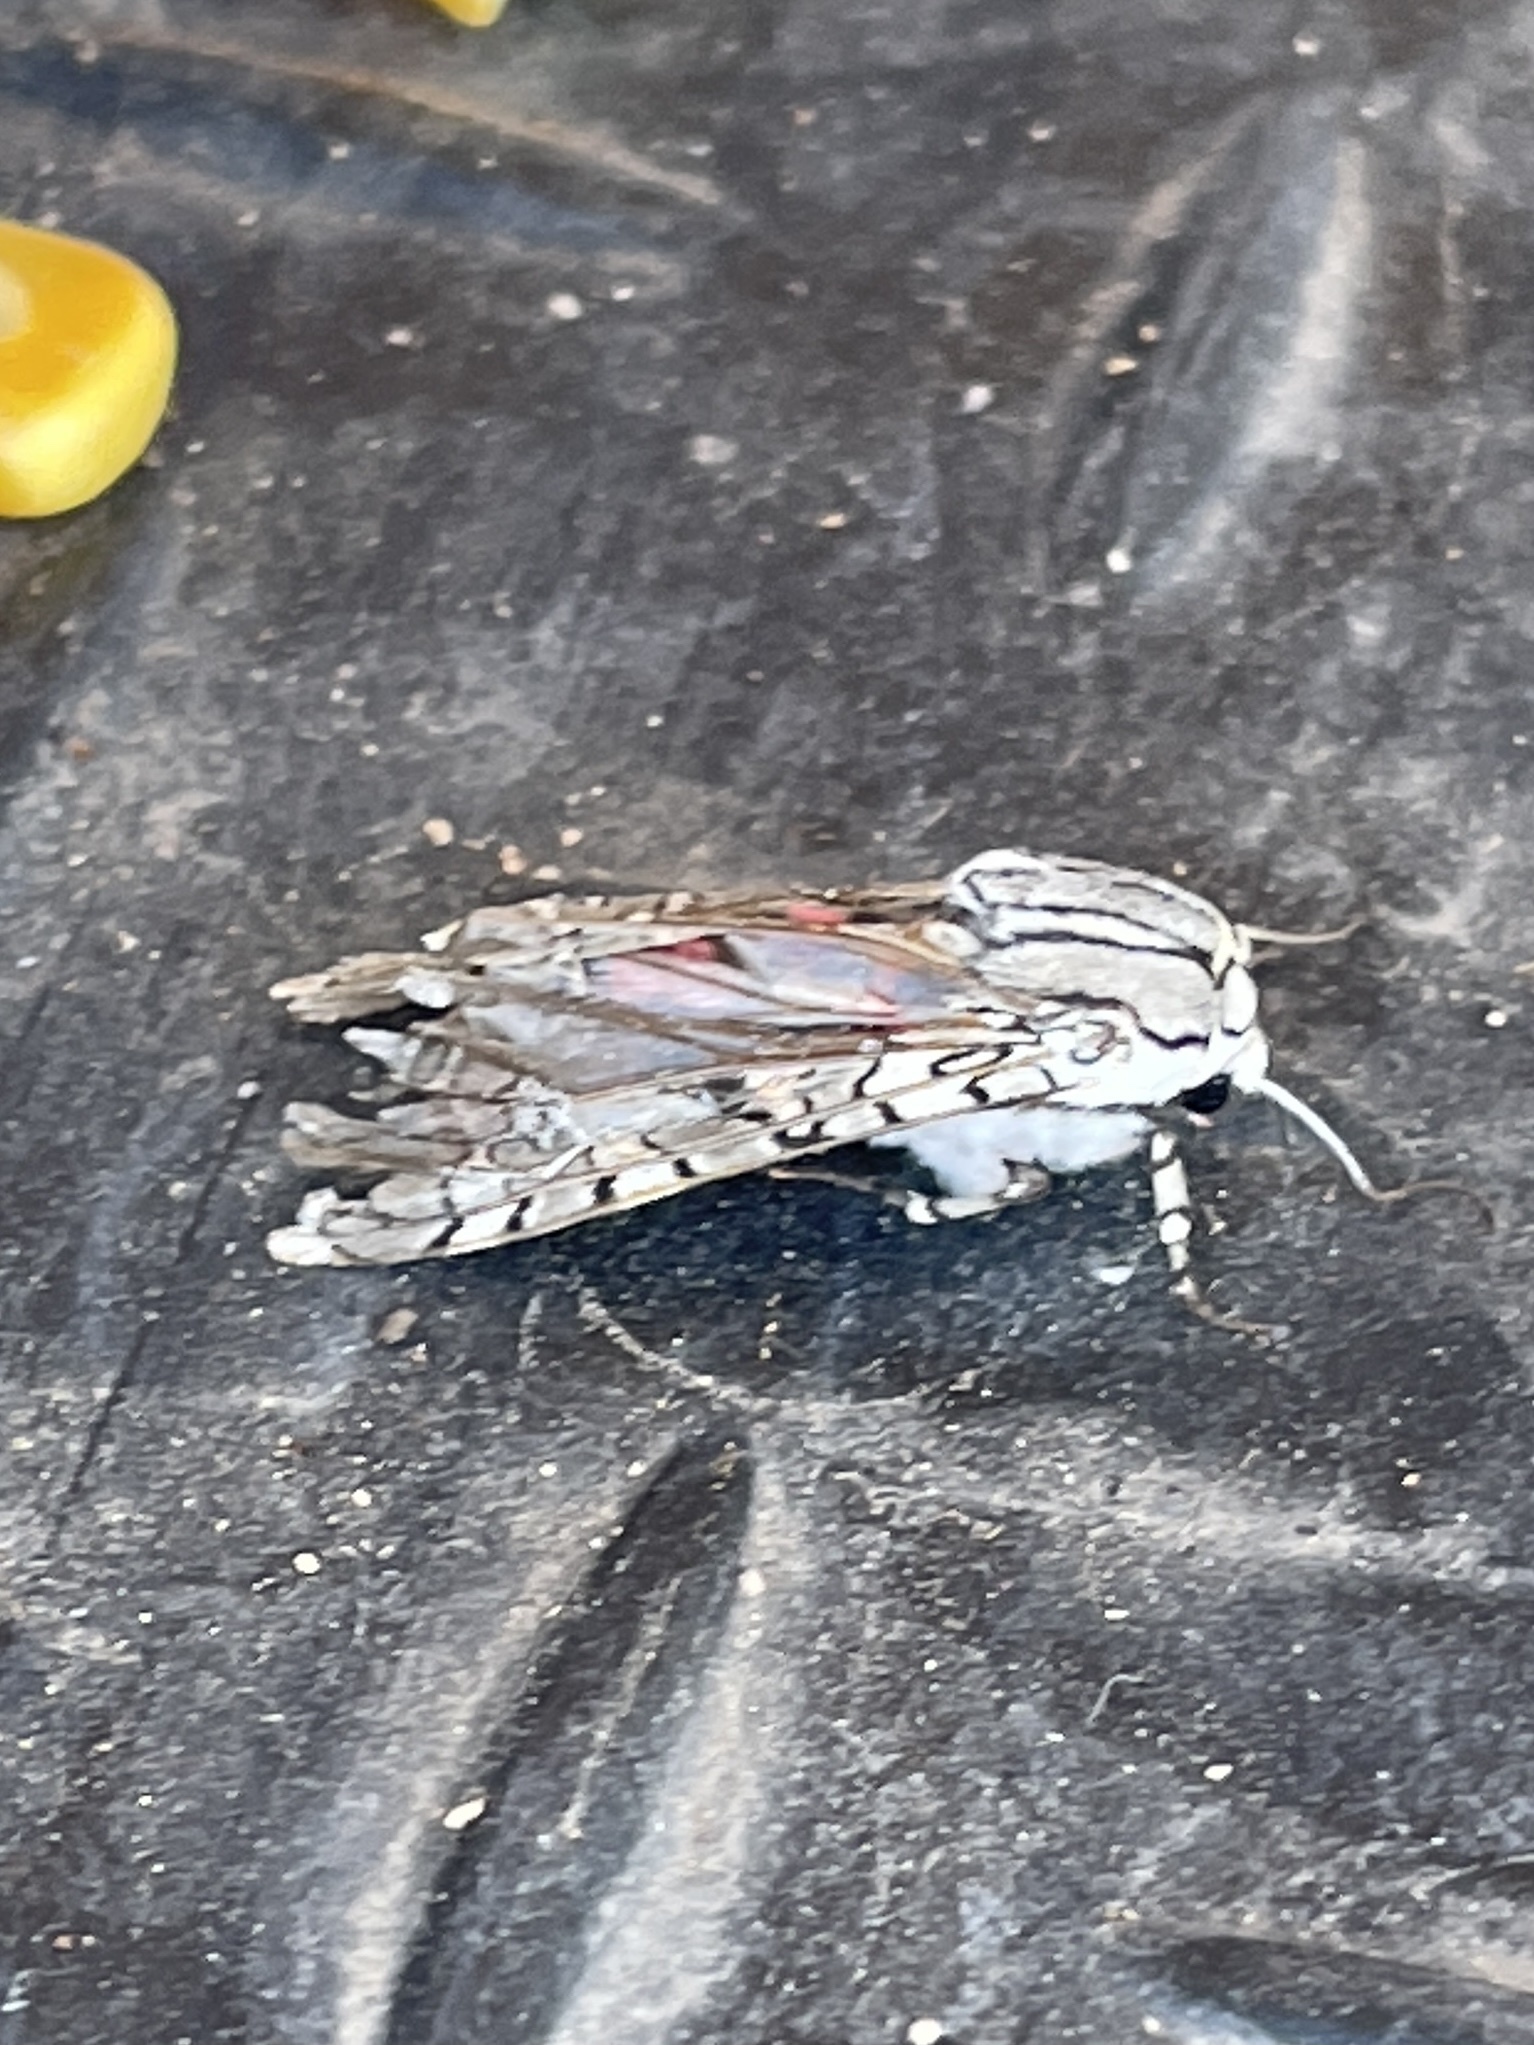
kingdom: Animalia
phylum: Arthropoda
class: Insecta
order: Lepidoptera
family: Erebidae
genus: Arachnis
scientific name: Arachnis picta
